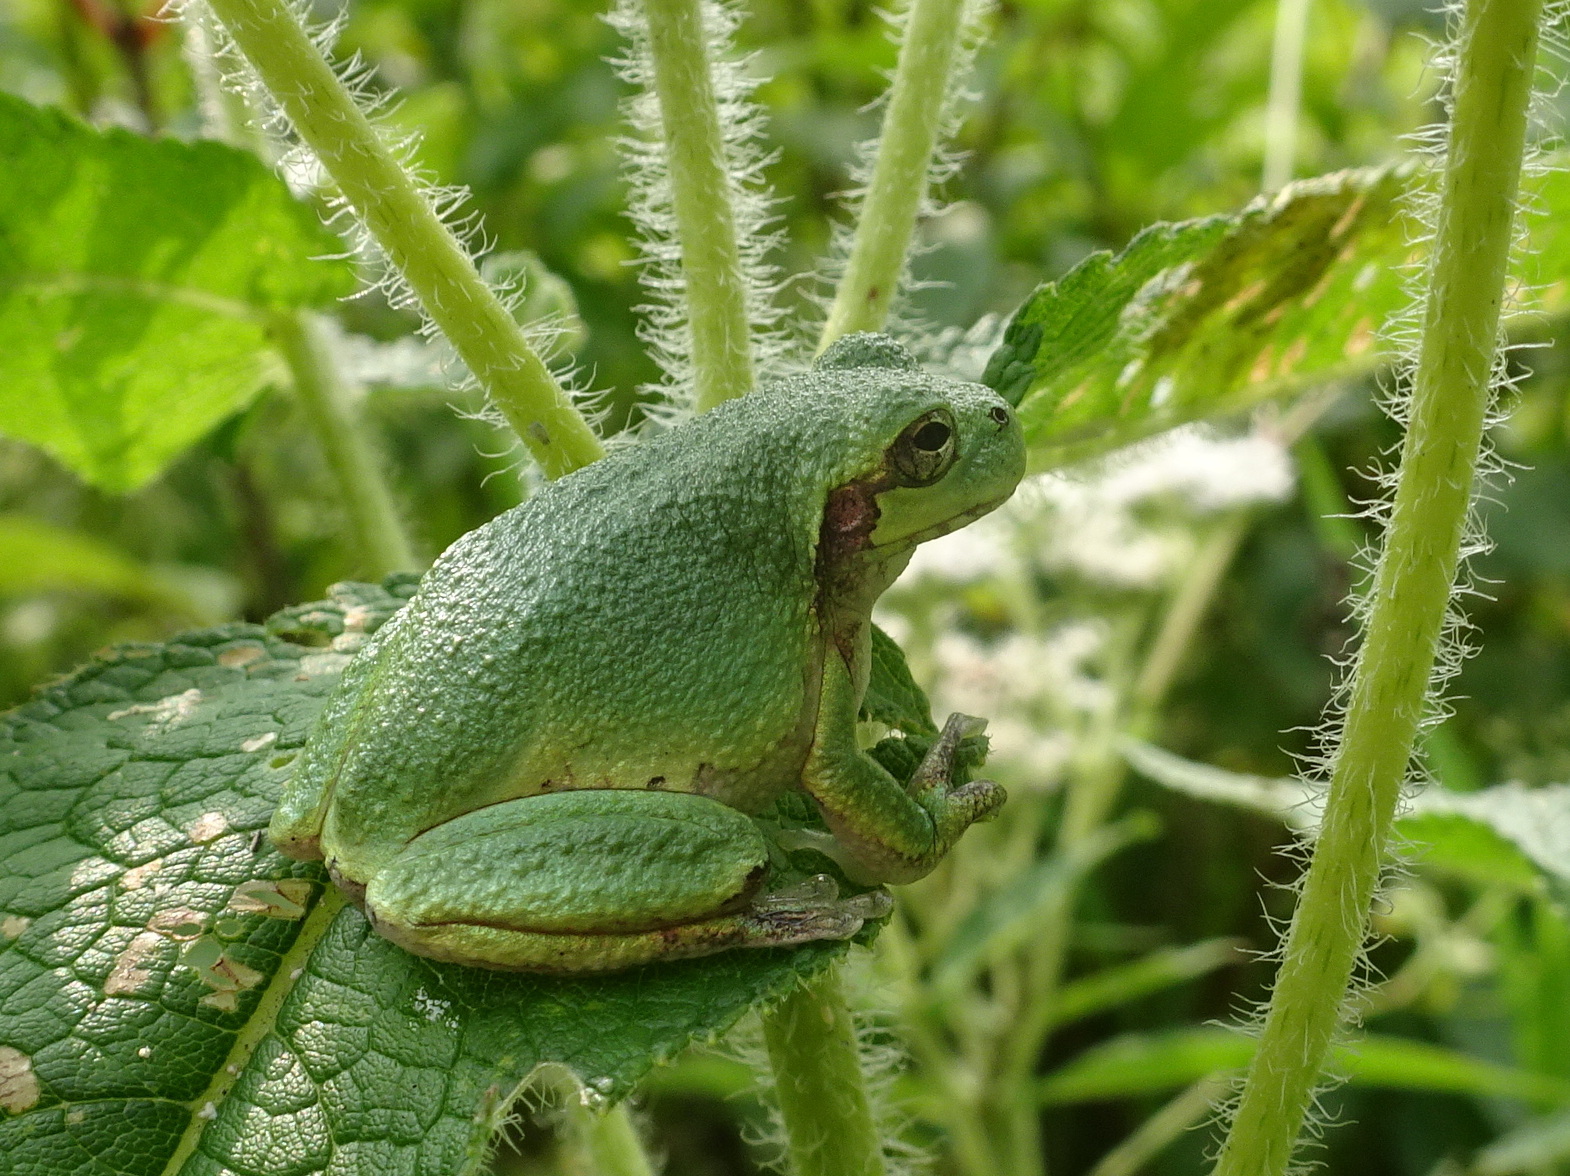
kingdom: Animalia
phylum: Chordata
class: Amphibia
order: Anura
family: Hylidae
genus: Hyla
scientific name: Hyla
